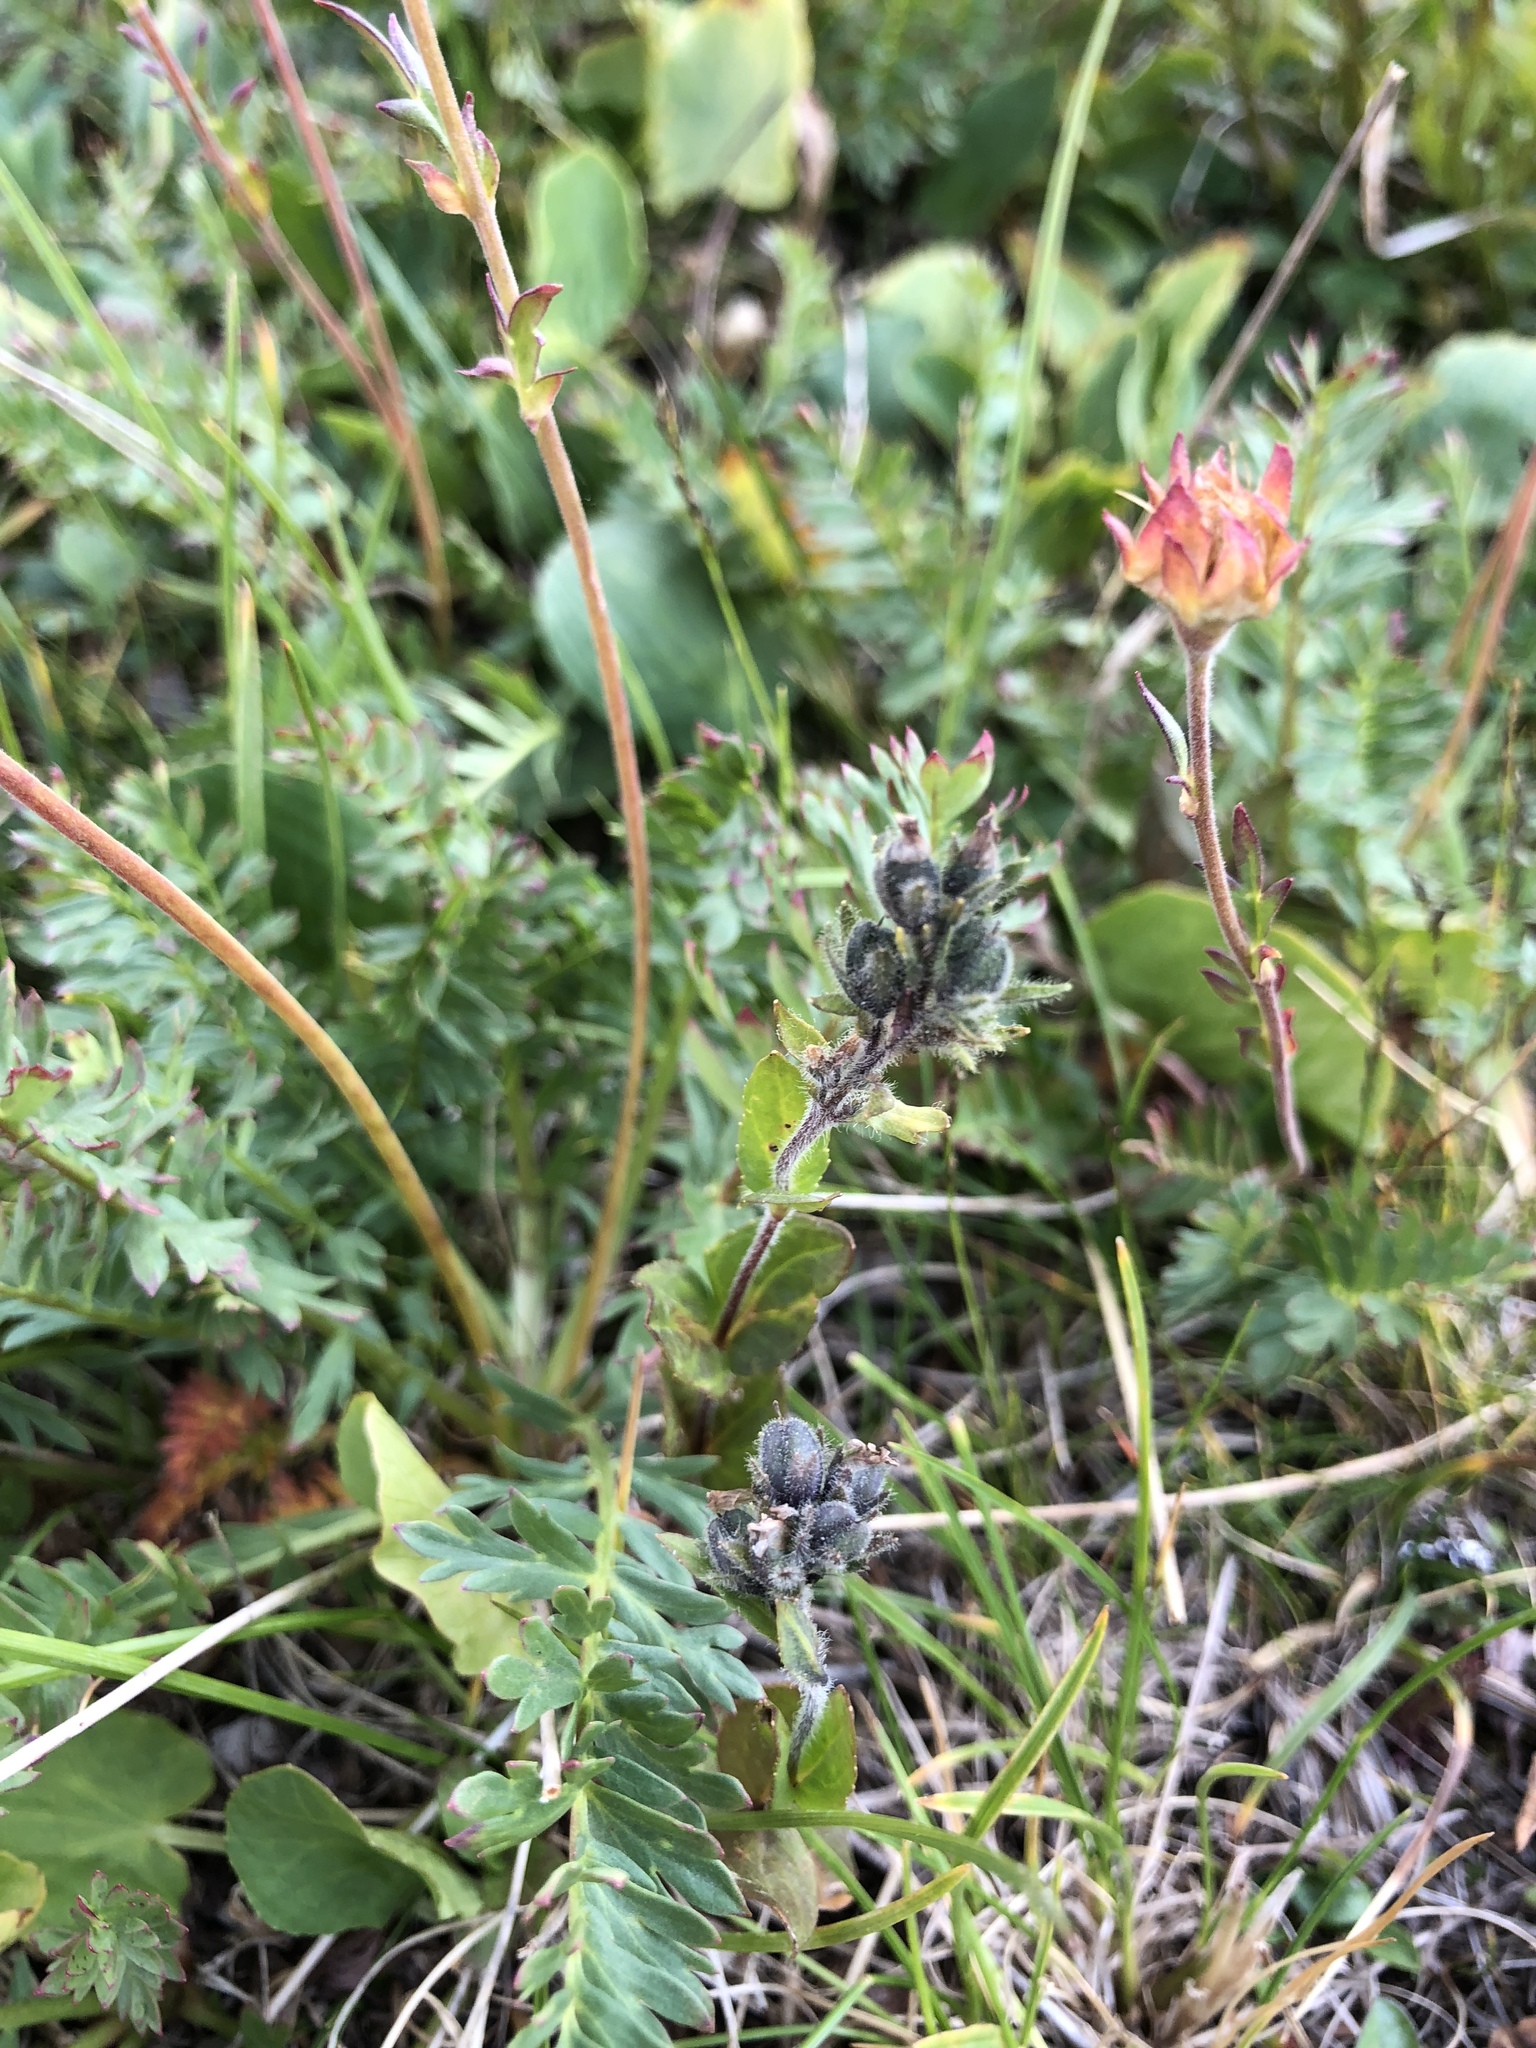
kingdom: Plantae
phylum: Tracheophyta
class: Magnoliopsida
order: Lamiales
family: Plantaginaceae
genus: Veronica
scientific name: Veronica wormskjoldii
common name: American alpine speedwell
